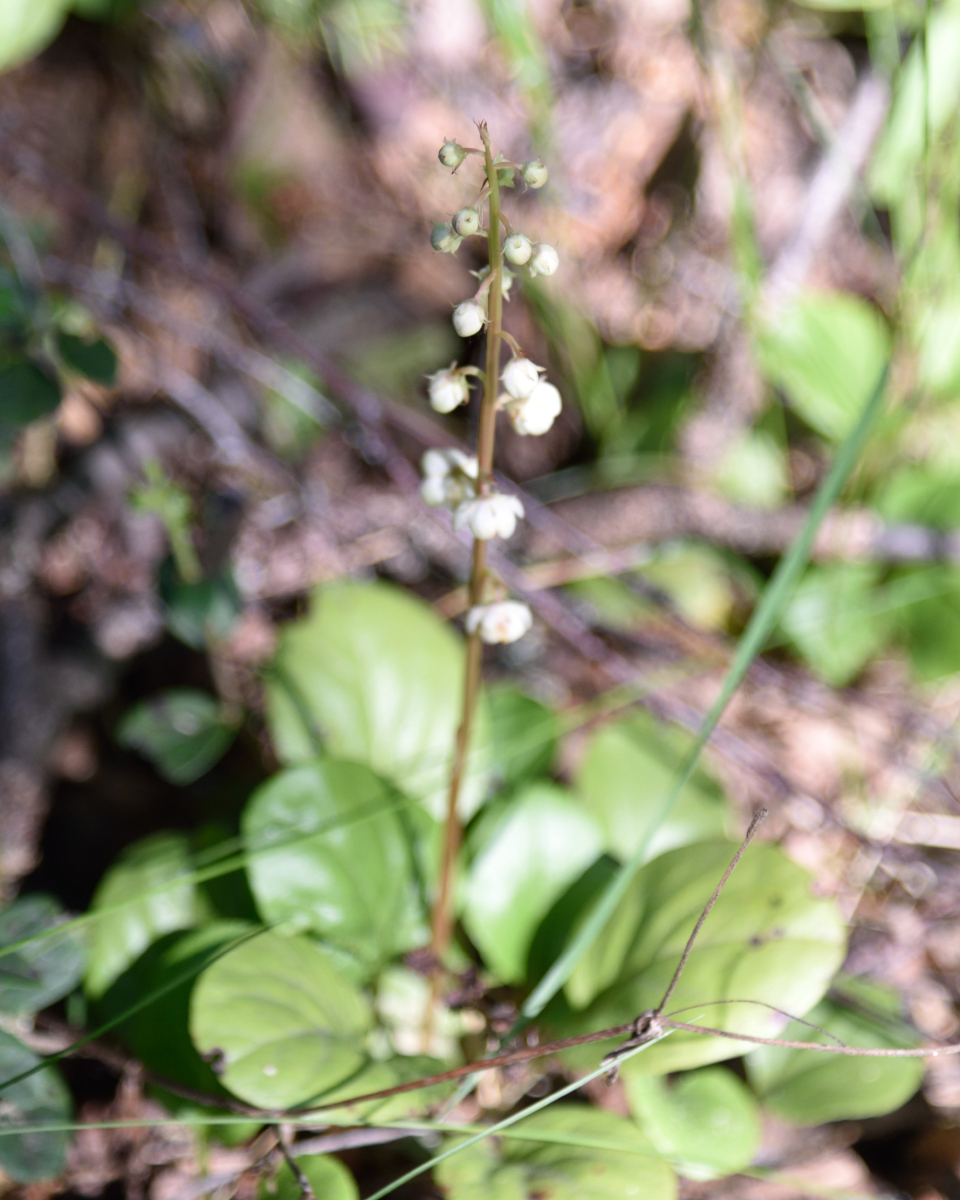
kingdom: Plantae
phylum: Tracheophyta
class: Magnoliopsida
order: Ericales
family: Ericaceae
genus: Pyrola
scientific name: Pyrola rotundifolia
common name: Round-leaved wintergreen
